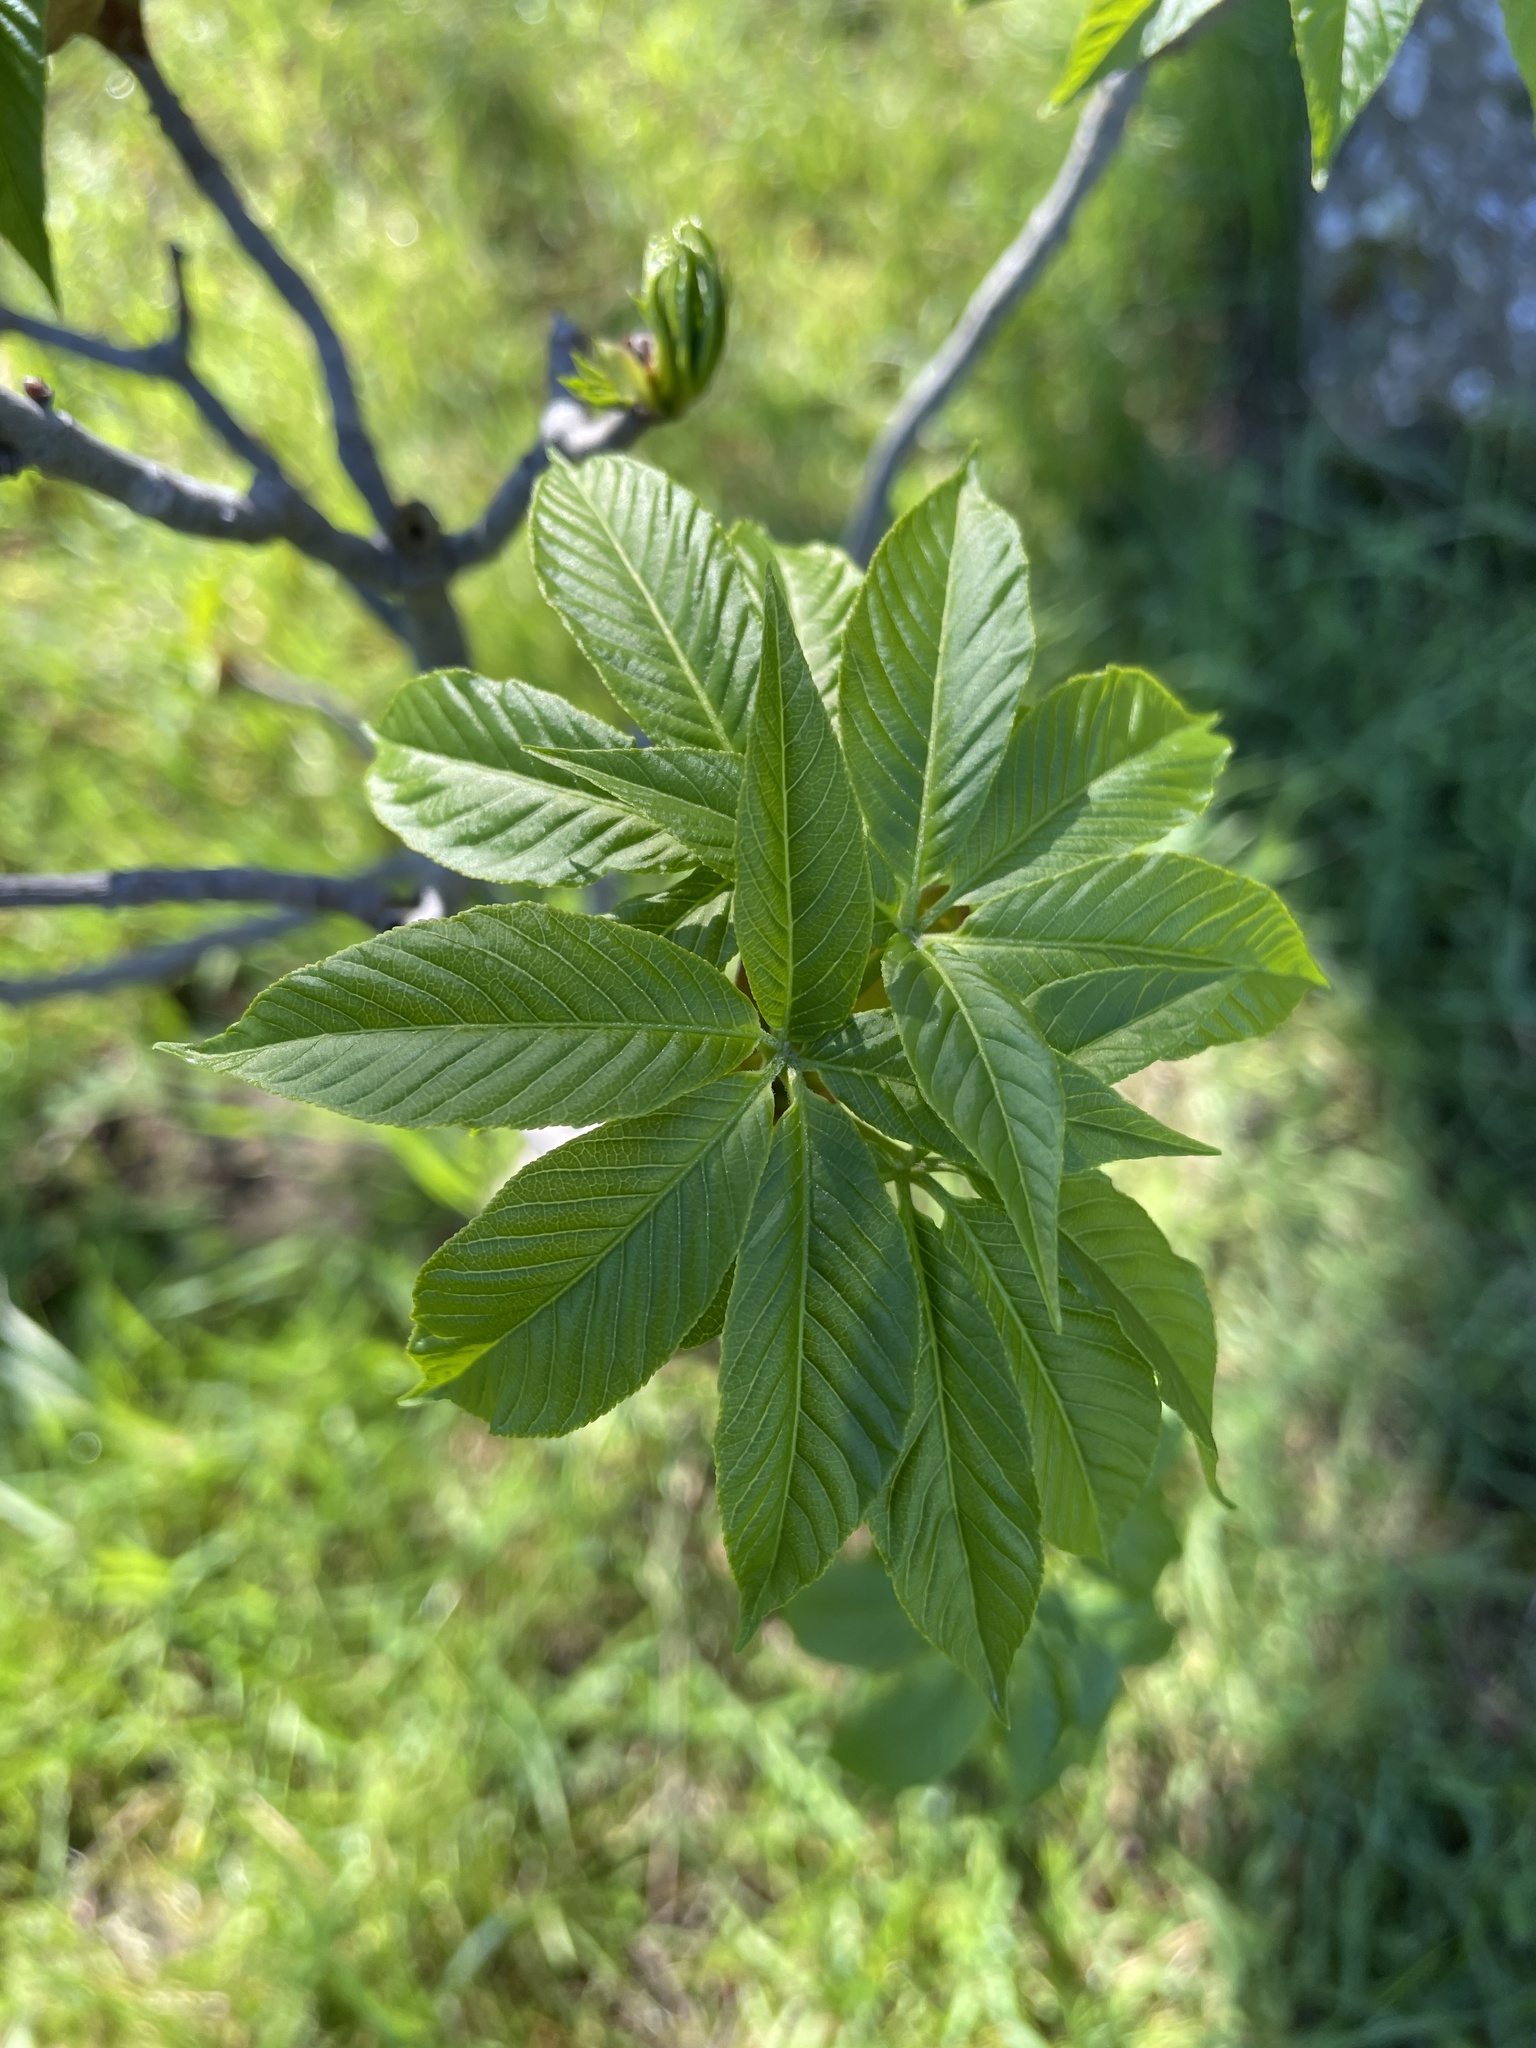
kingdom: Plantae
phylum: Tracheophyta
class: Magnoliopsida
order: Sapindales
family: Sapindaceae
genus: Aesculus
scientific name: Aesculus californica
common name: California buckeye
